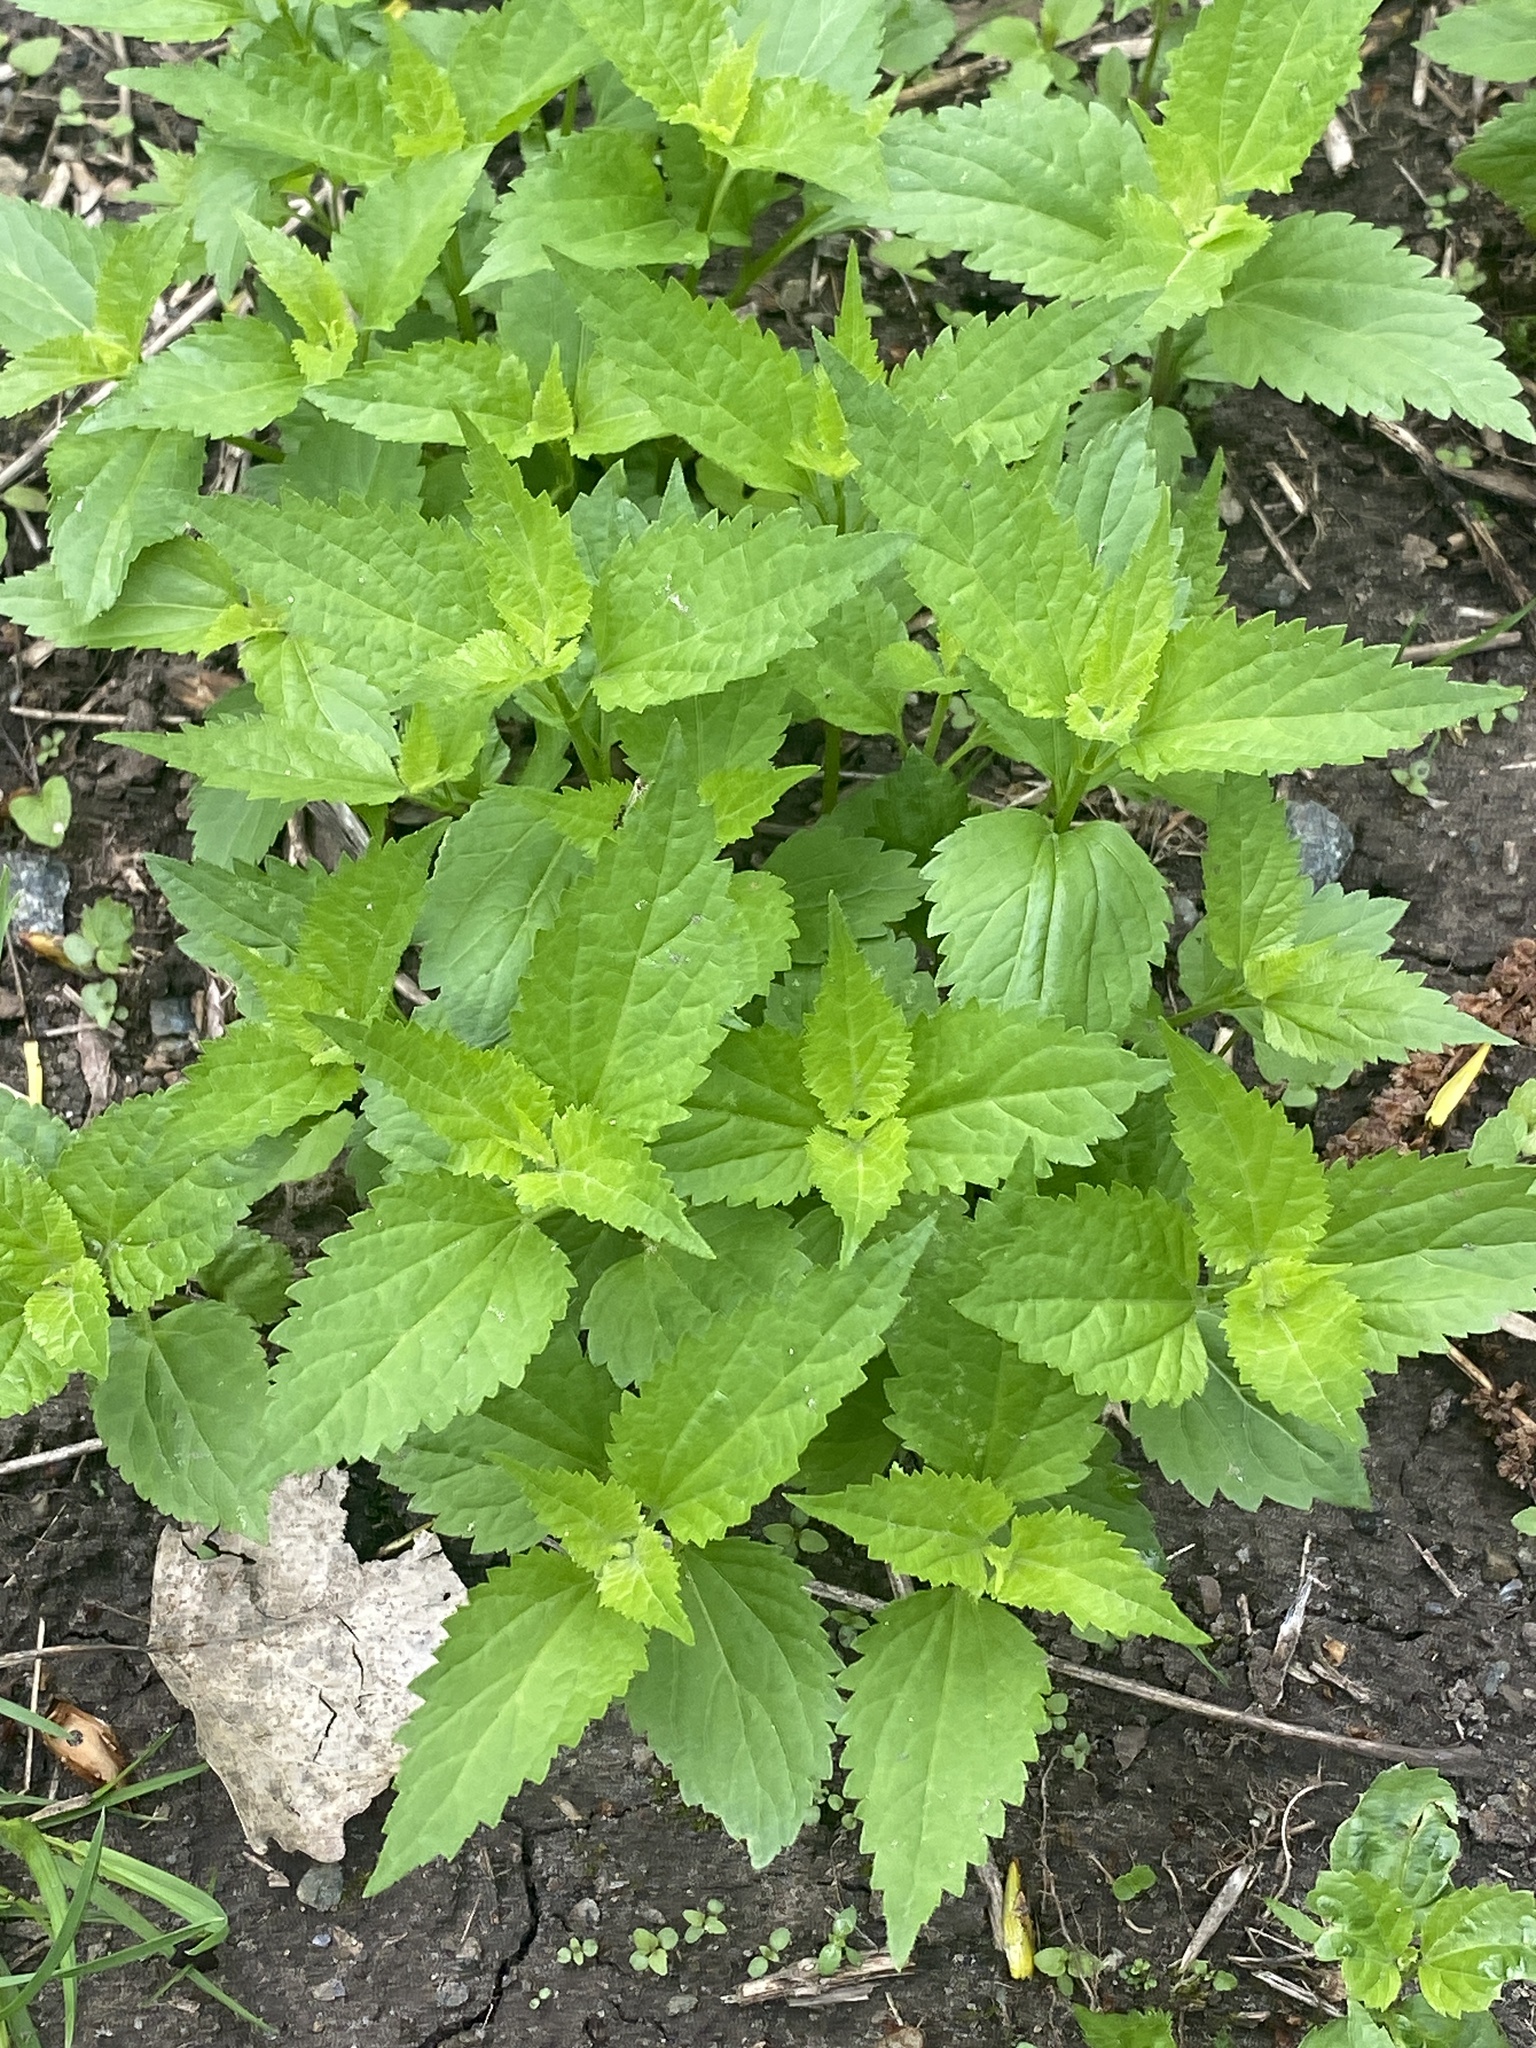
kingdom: Plantae
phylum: Tracheophyta
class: Magnoliopsida
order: Asterales
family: Asteraceae
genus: Ageratina
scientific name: Ageratina altissima
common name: White snakeroot
